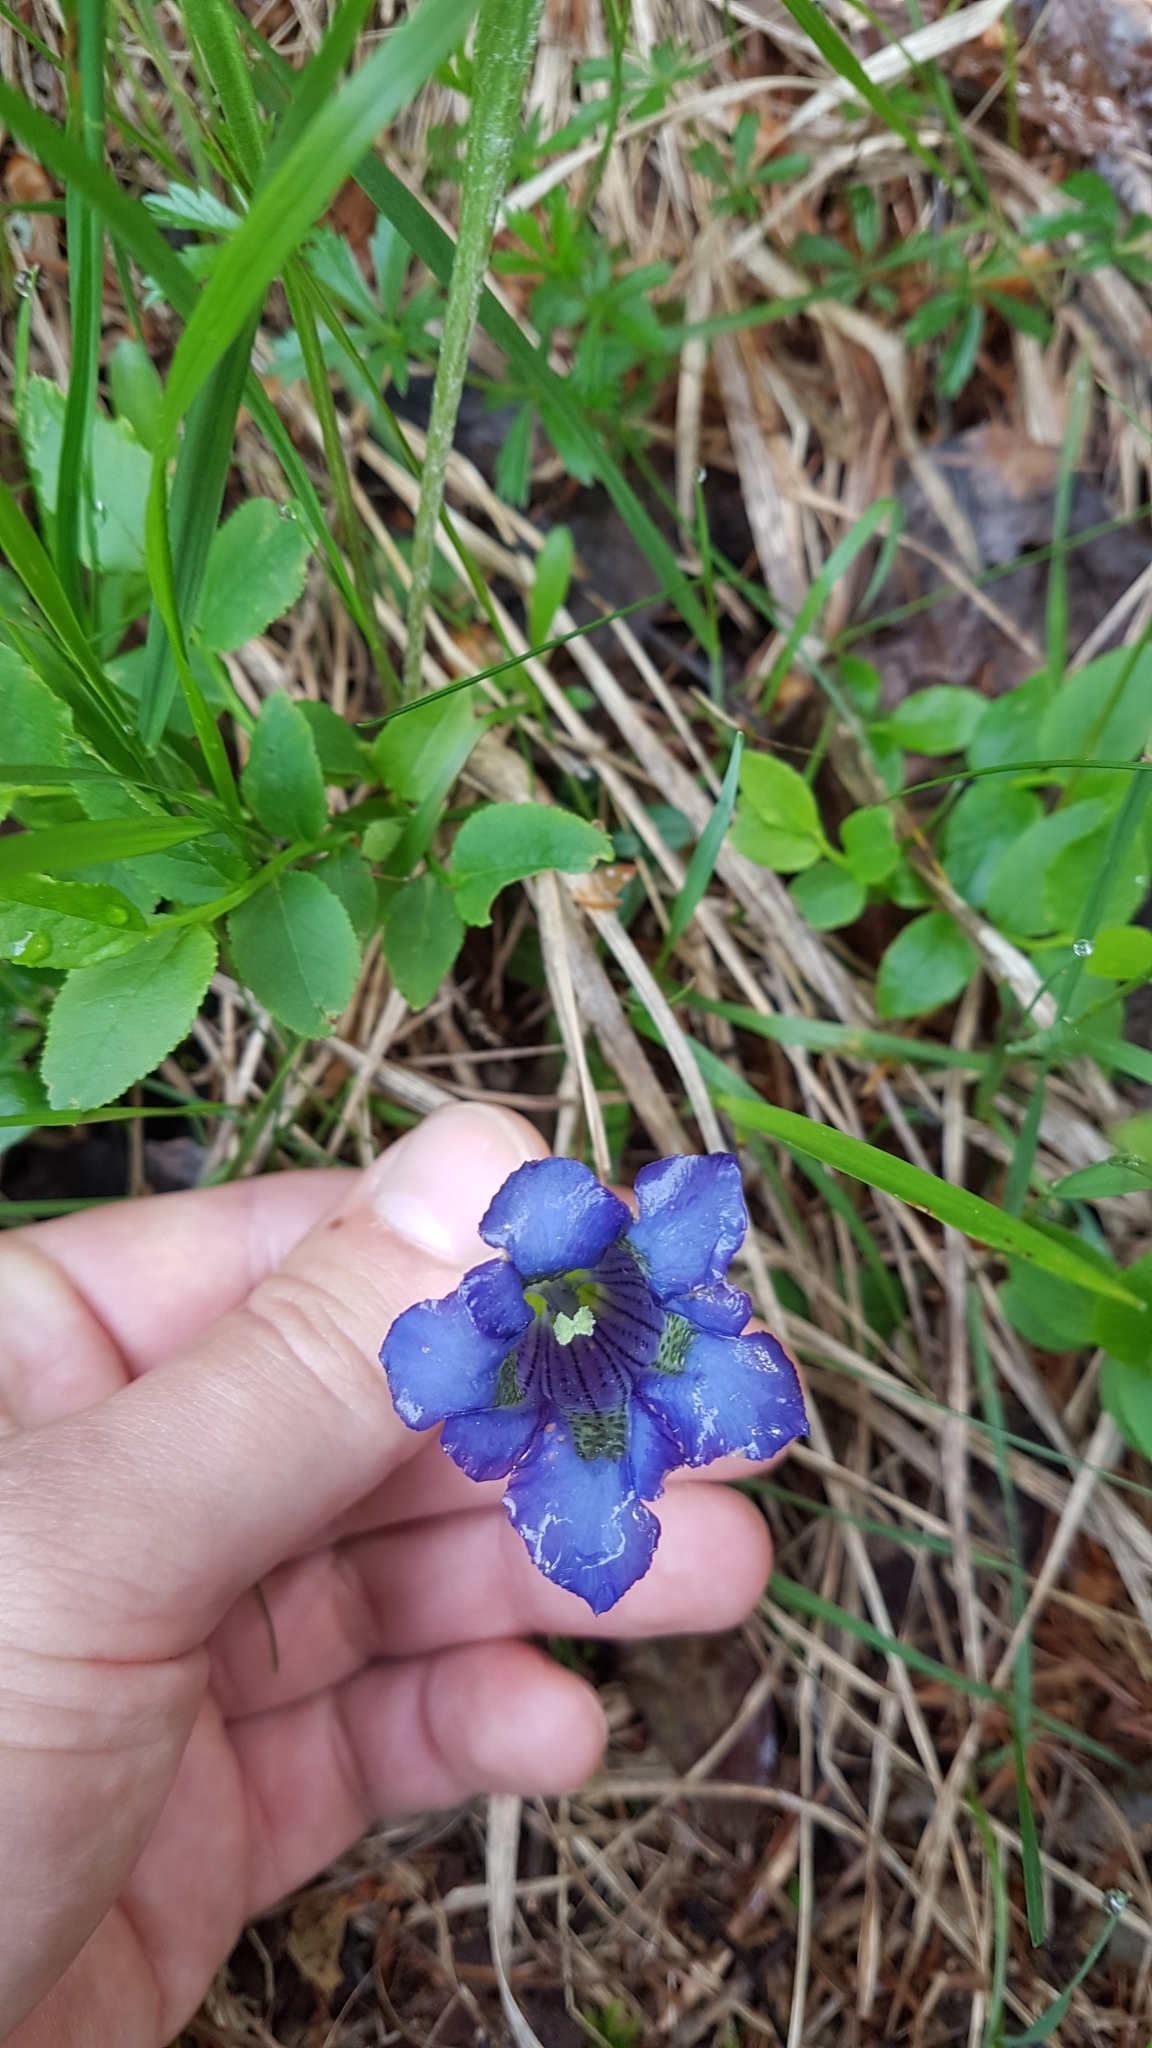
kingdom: Plantae
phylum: Tracheophyta
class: Magnoliopsida
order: Gentianales
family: Gentianaceae
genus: Gentiana
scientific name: Gentiana acaulis
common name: Trumpet gentian
